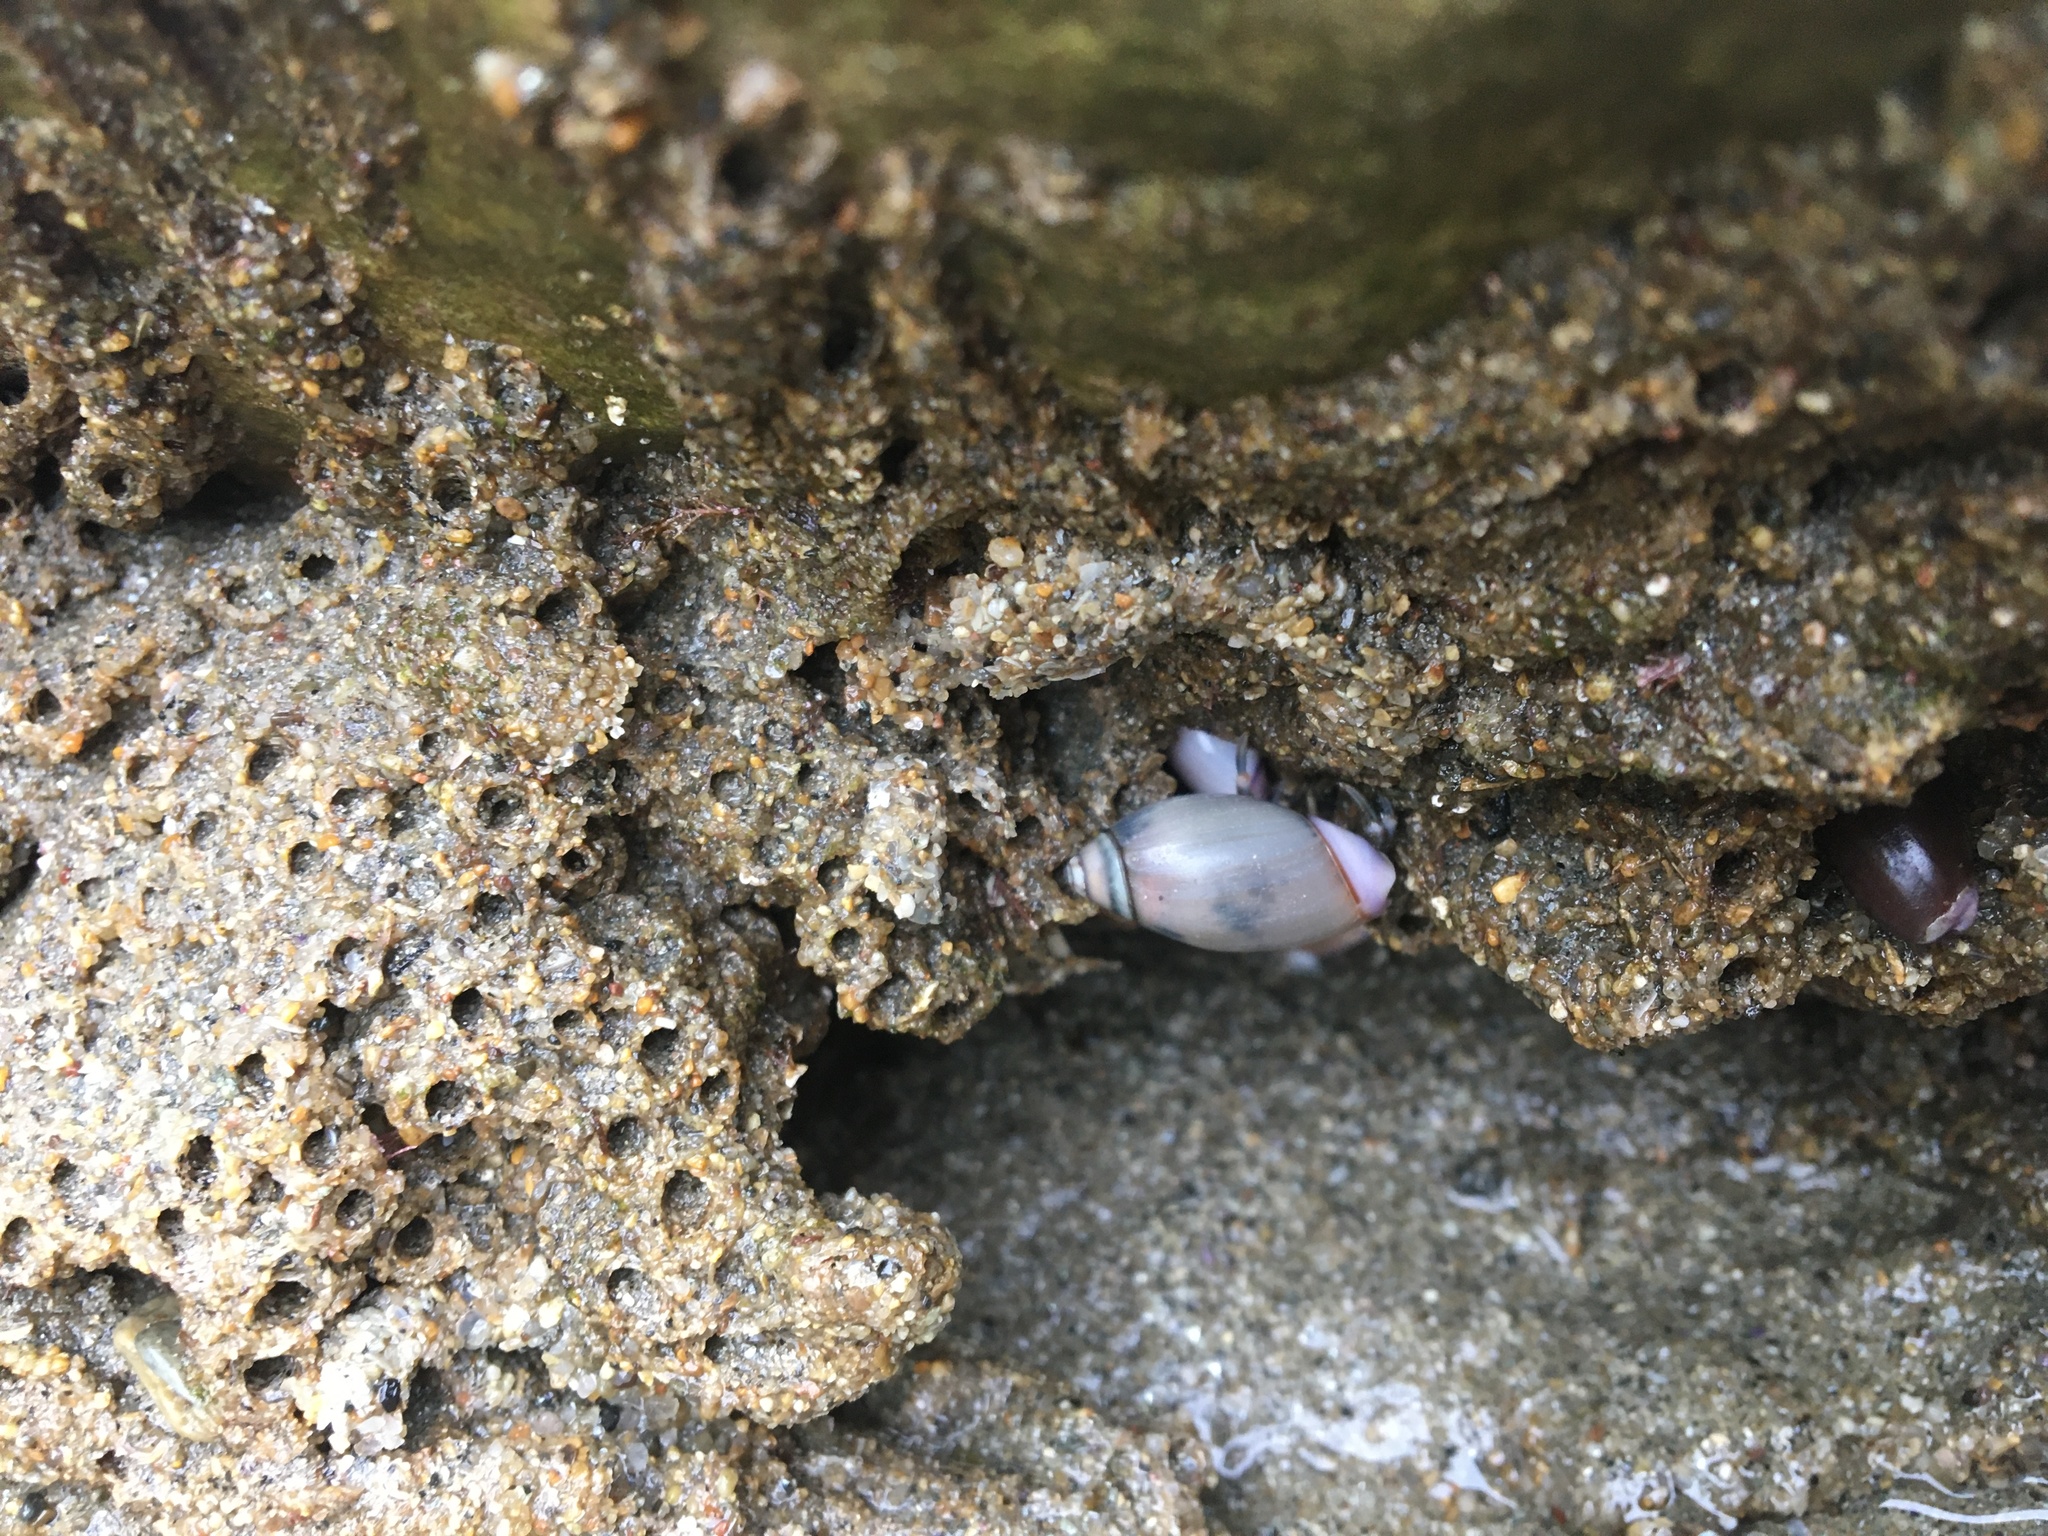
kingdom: Animalia
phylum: Mollusca
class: Gastropoda
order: Neogastropoda
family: Olividae
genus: Callianax
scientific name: Callianax biplicata
